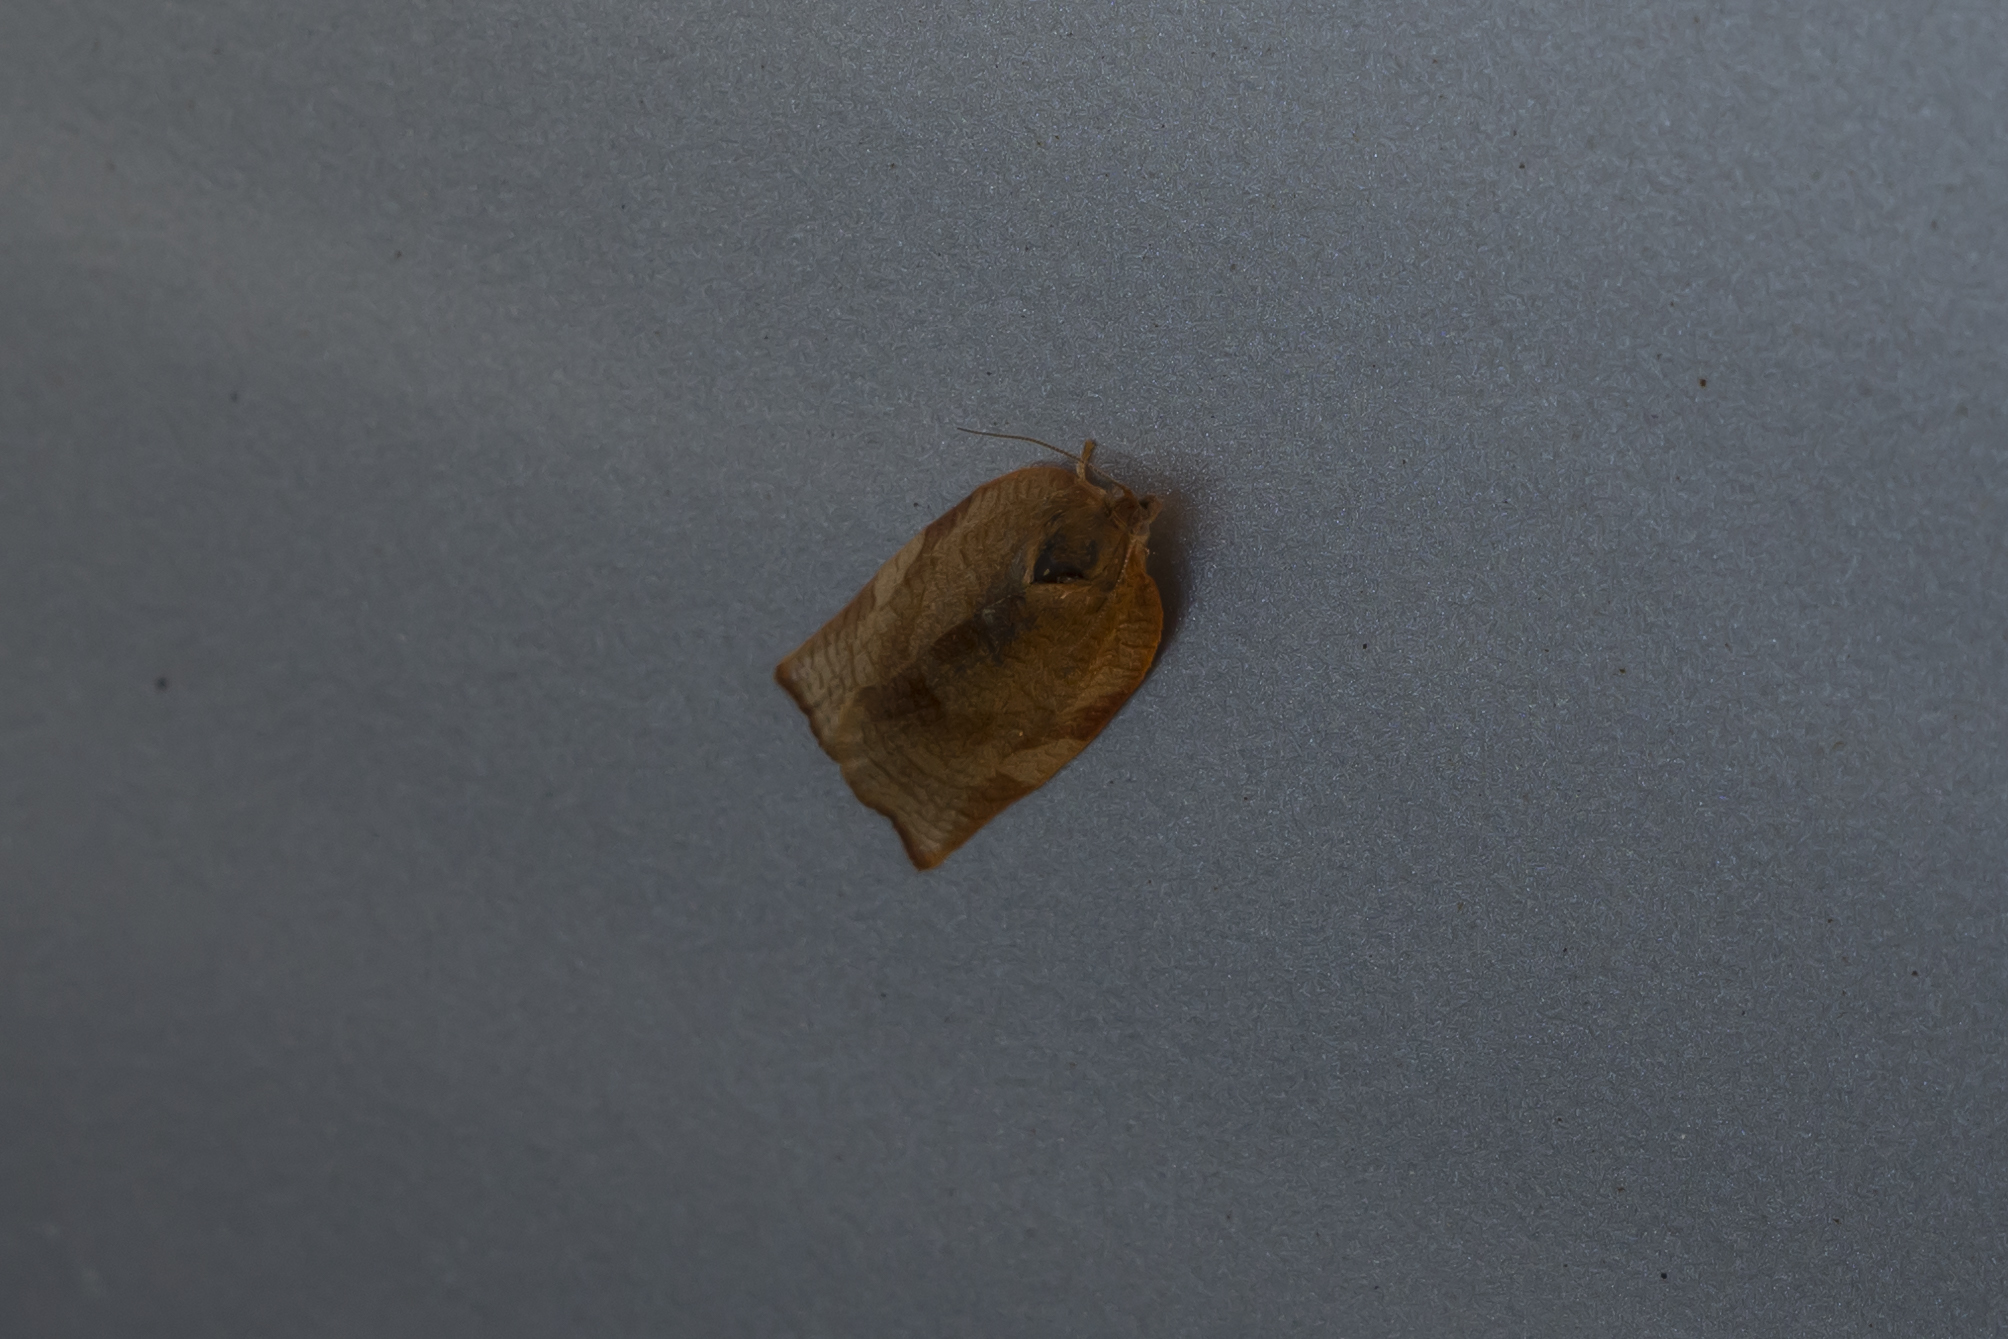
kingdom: Animalia
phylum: Arthropoda
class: Insecta
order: Lepidoptera
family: Tortricidae
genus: Cacoecimorpha
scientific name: Cacoecimorpha pronubana
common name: Carnation tortrix
